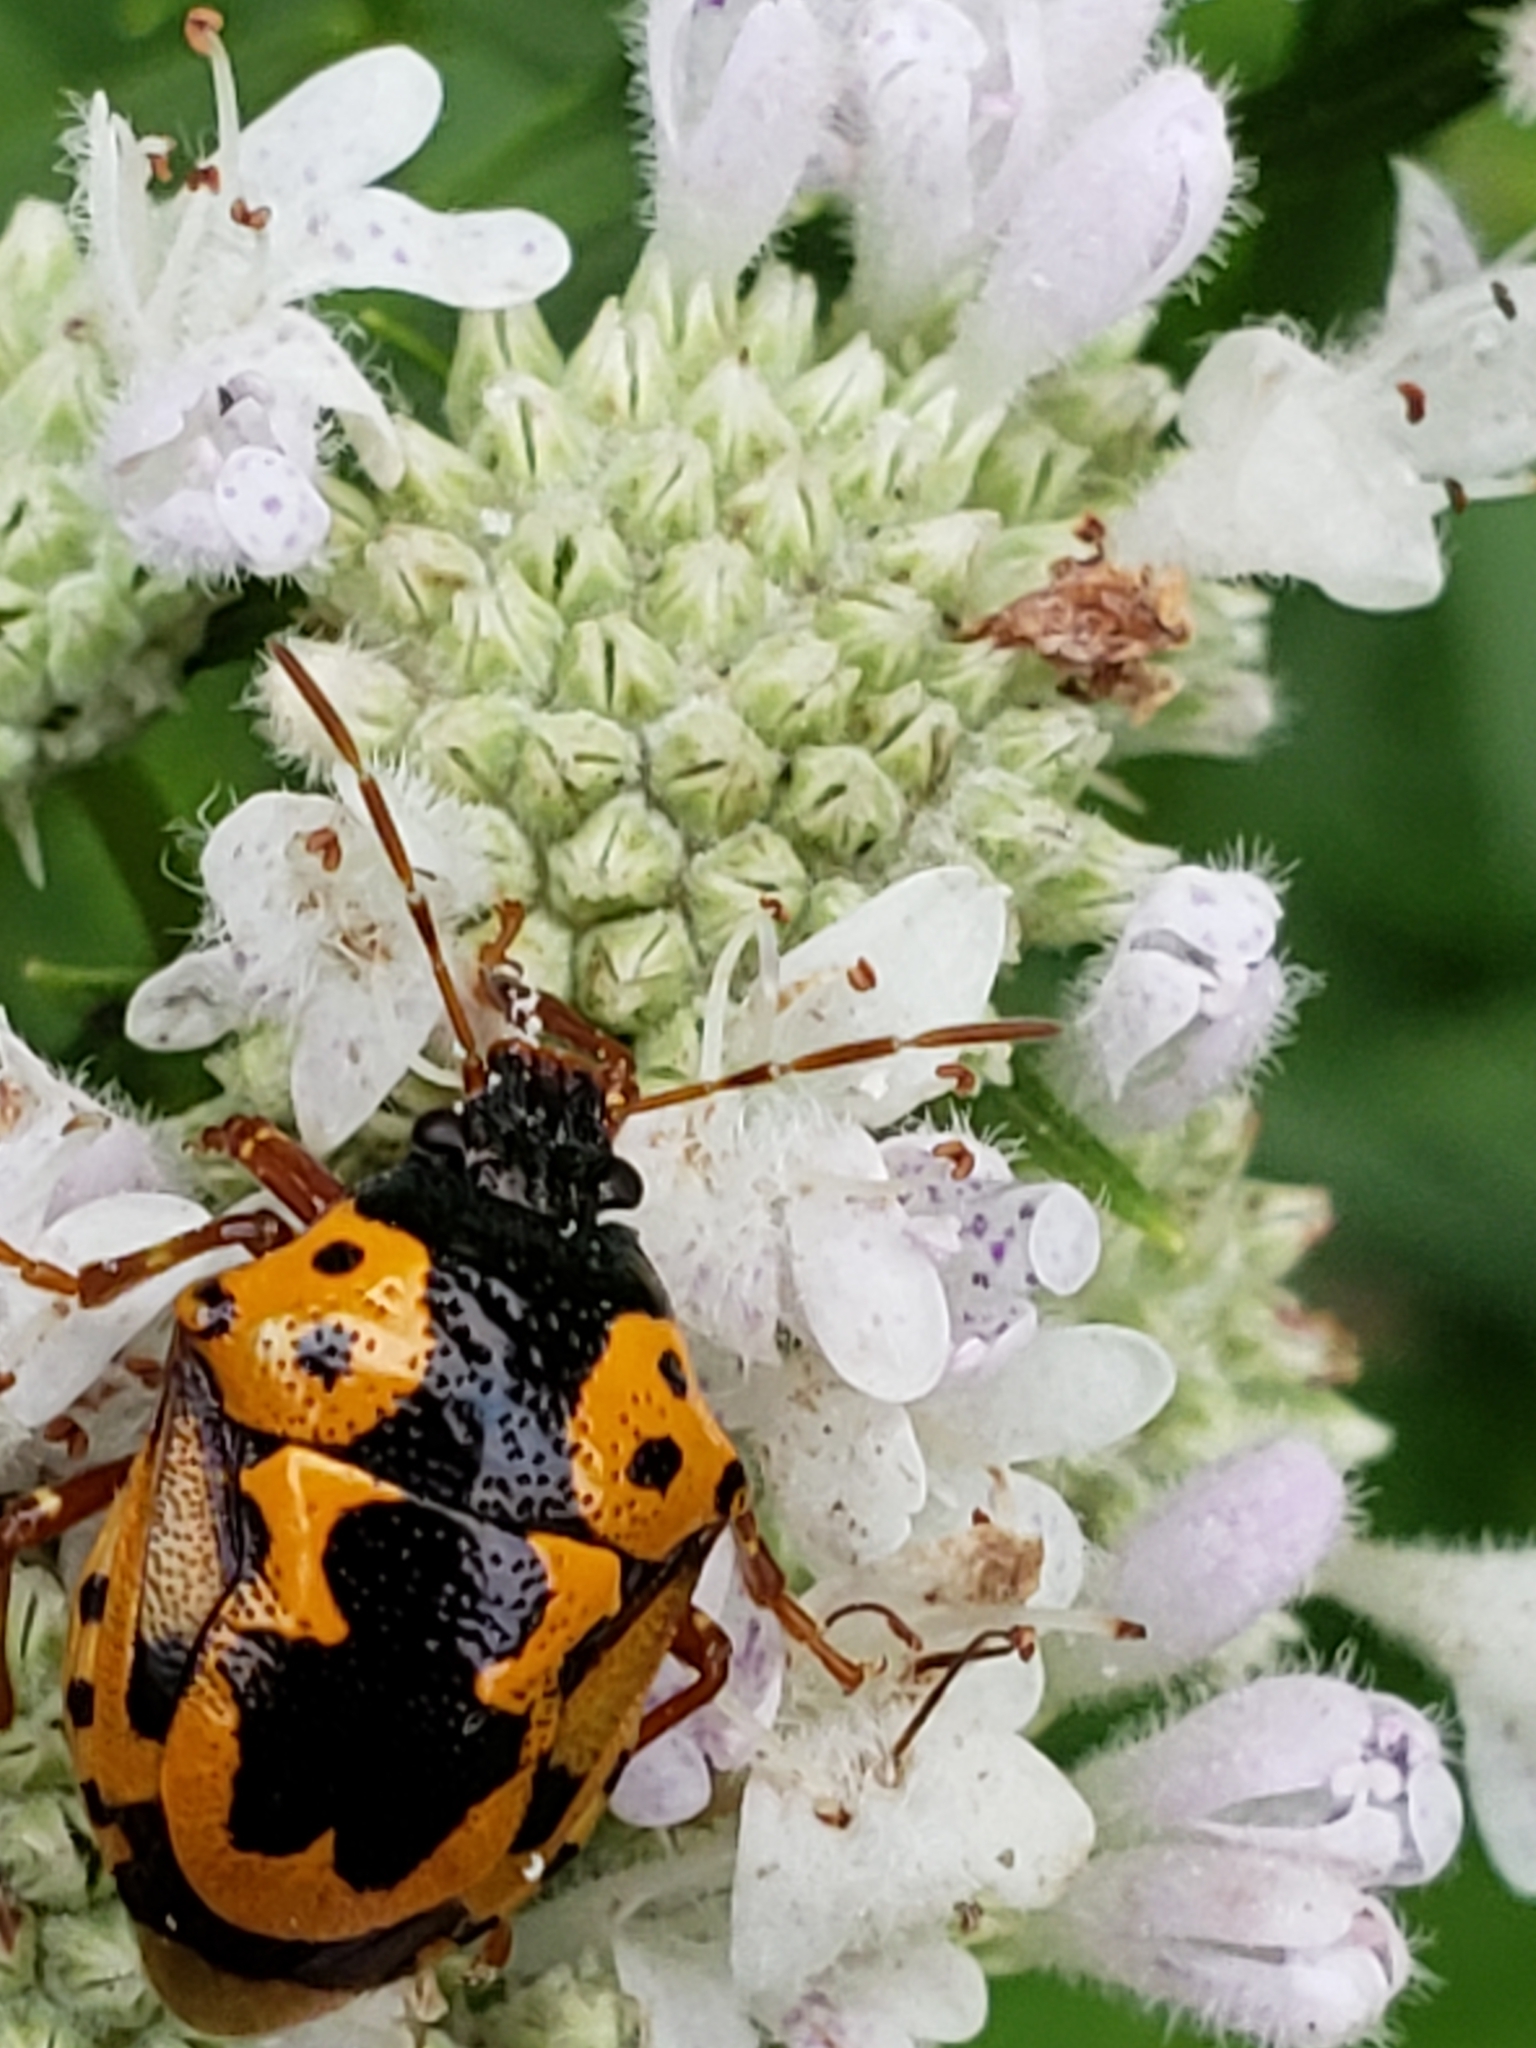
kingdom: Animalia
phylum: Arthropoda
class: Insecta
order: Hemiptera
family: Pentatomidae
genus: Stiretrus
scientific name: Stiretrus anchorago
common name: Anchor stink bug
